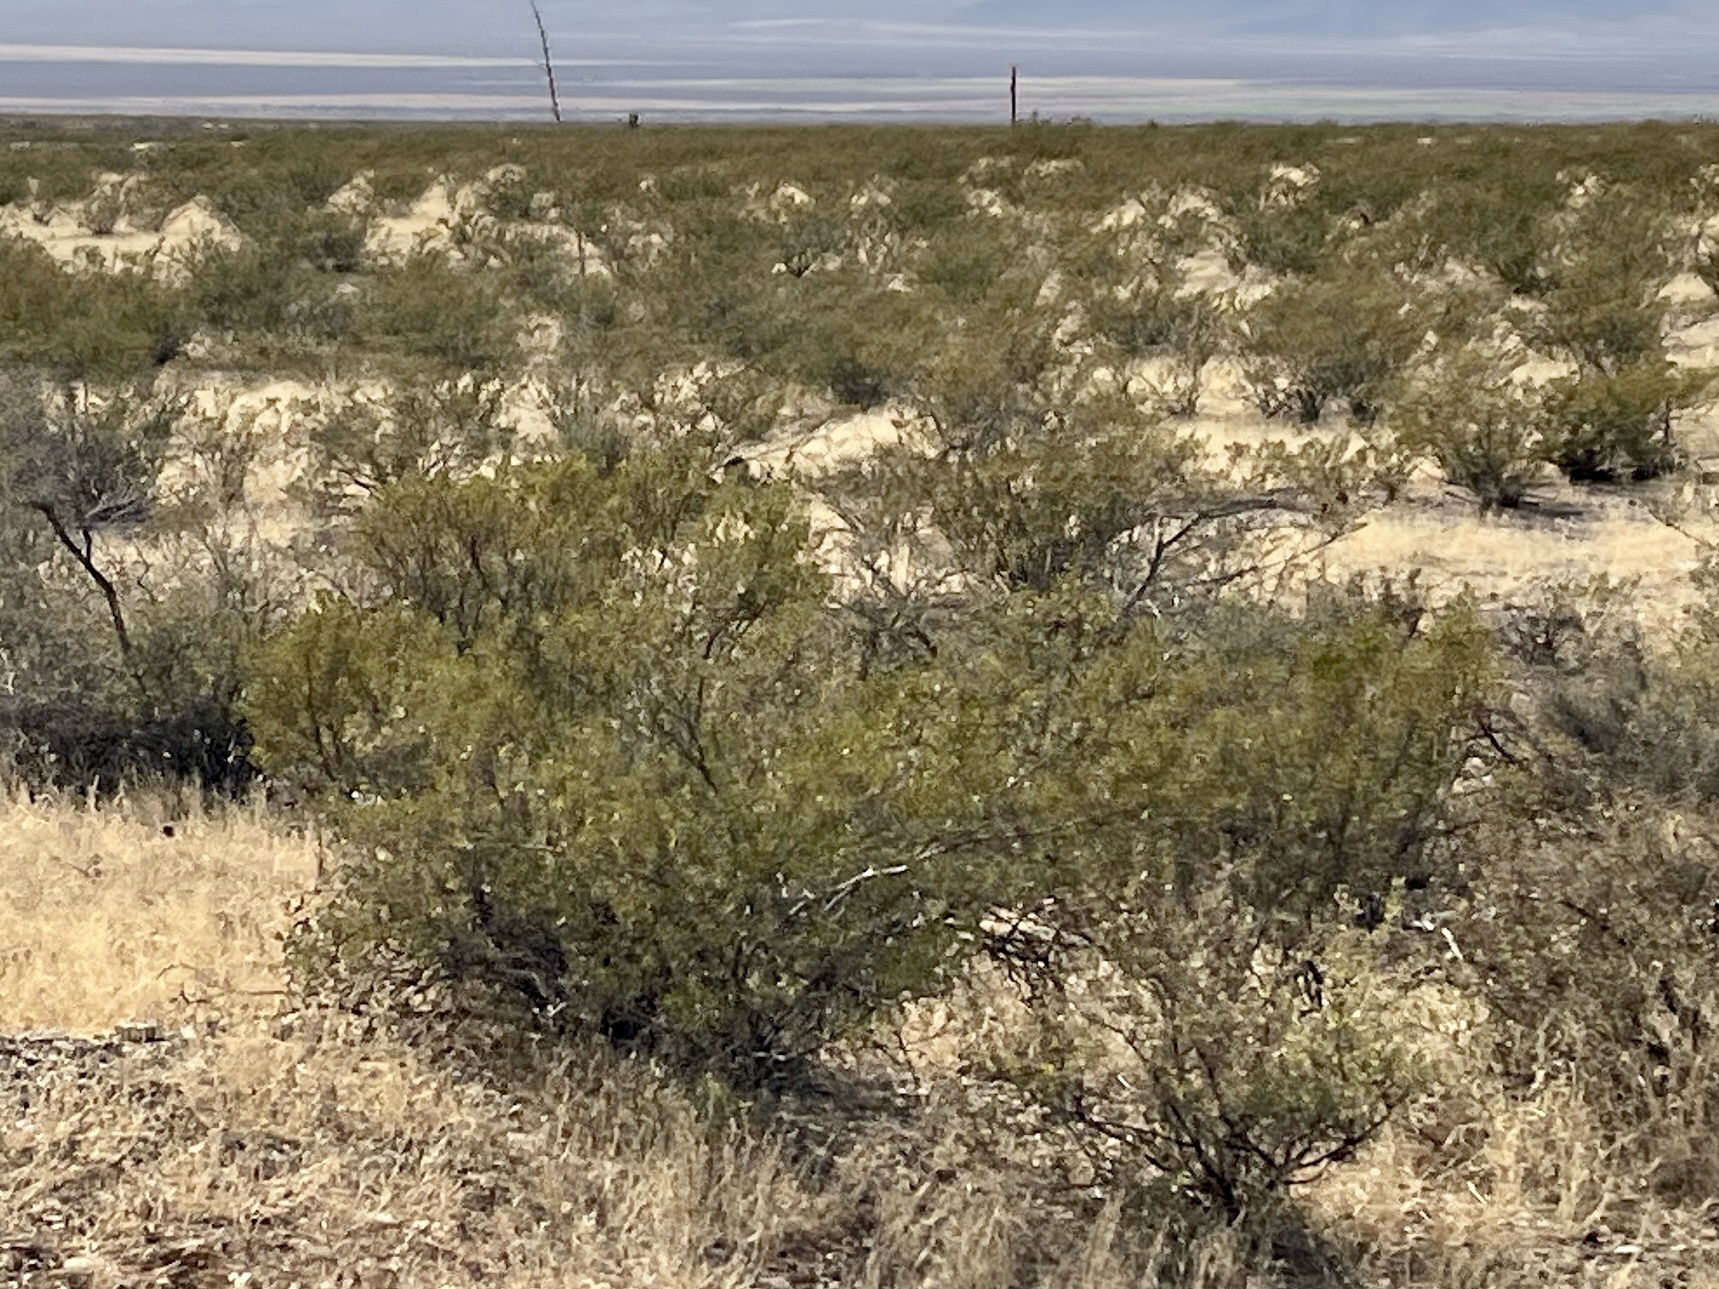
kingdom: Plantae
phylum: Tracheophyta
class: Magnoliopsida
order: Zygophyllales
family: Zygophyllaceae
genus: Larrea
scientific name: Larrea tridentata
